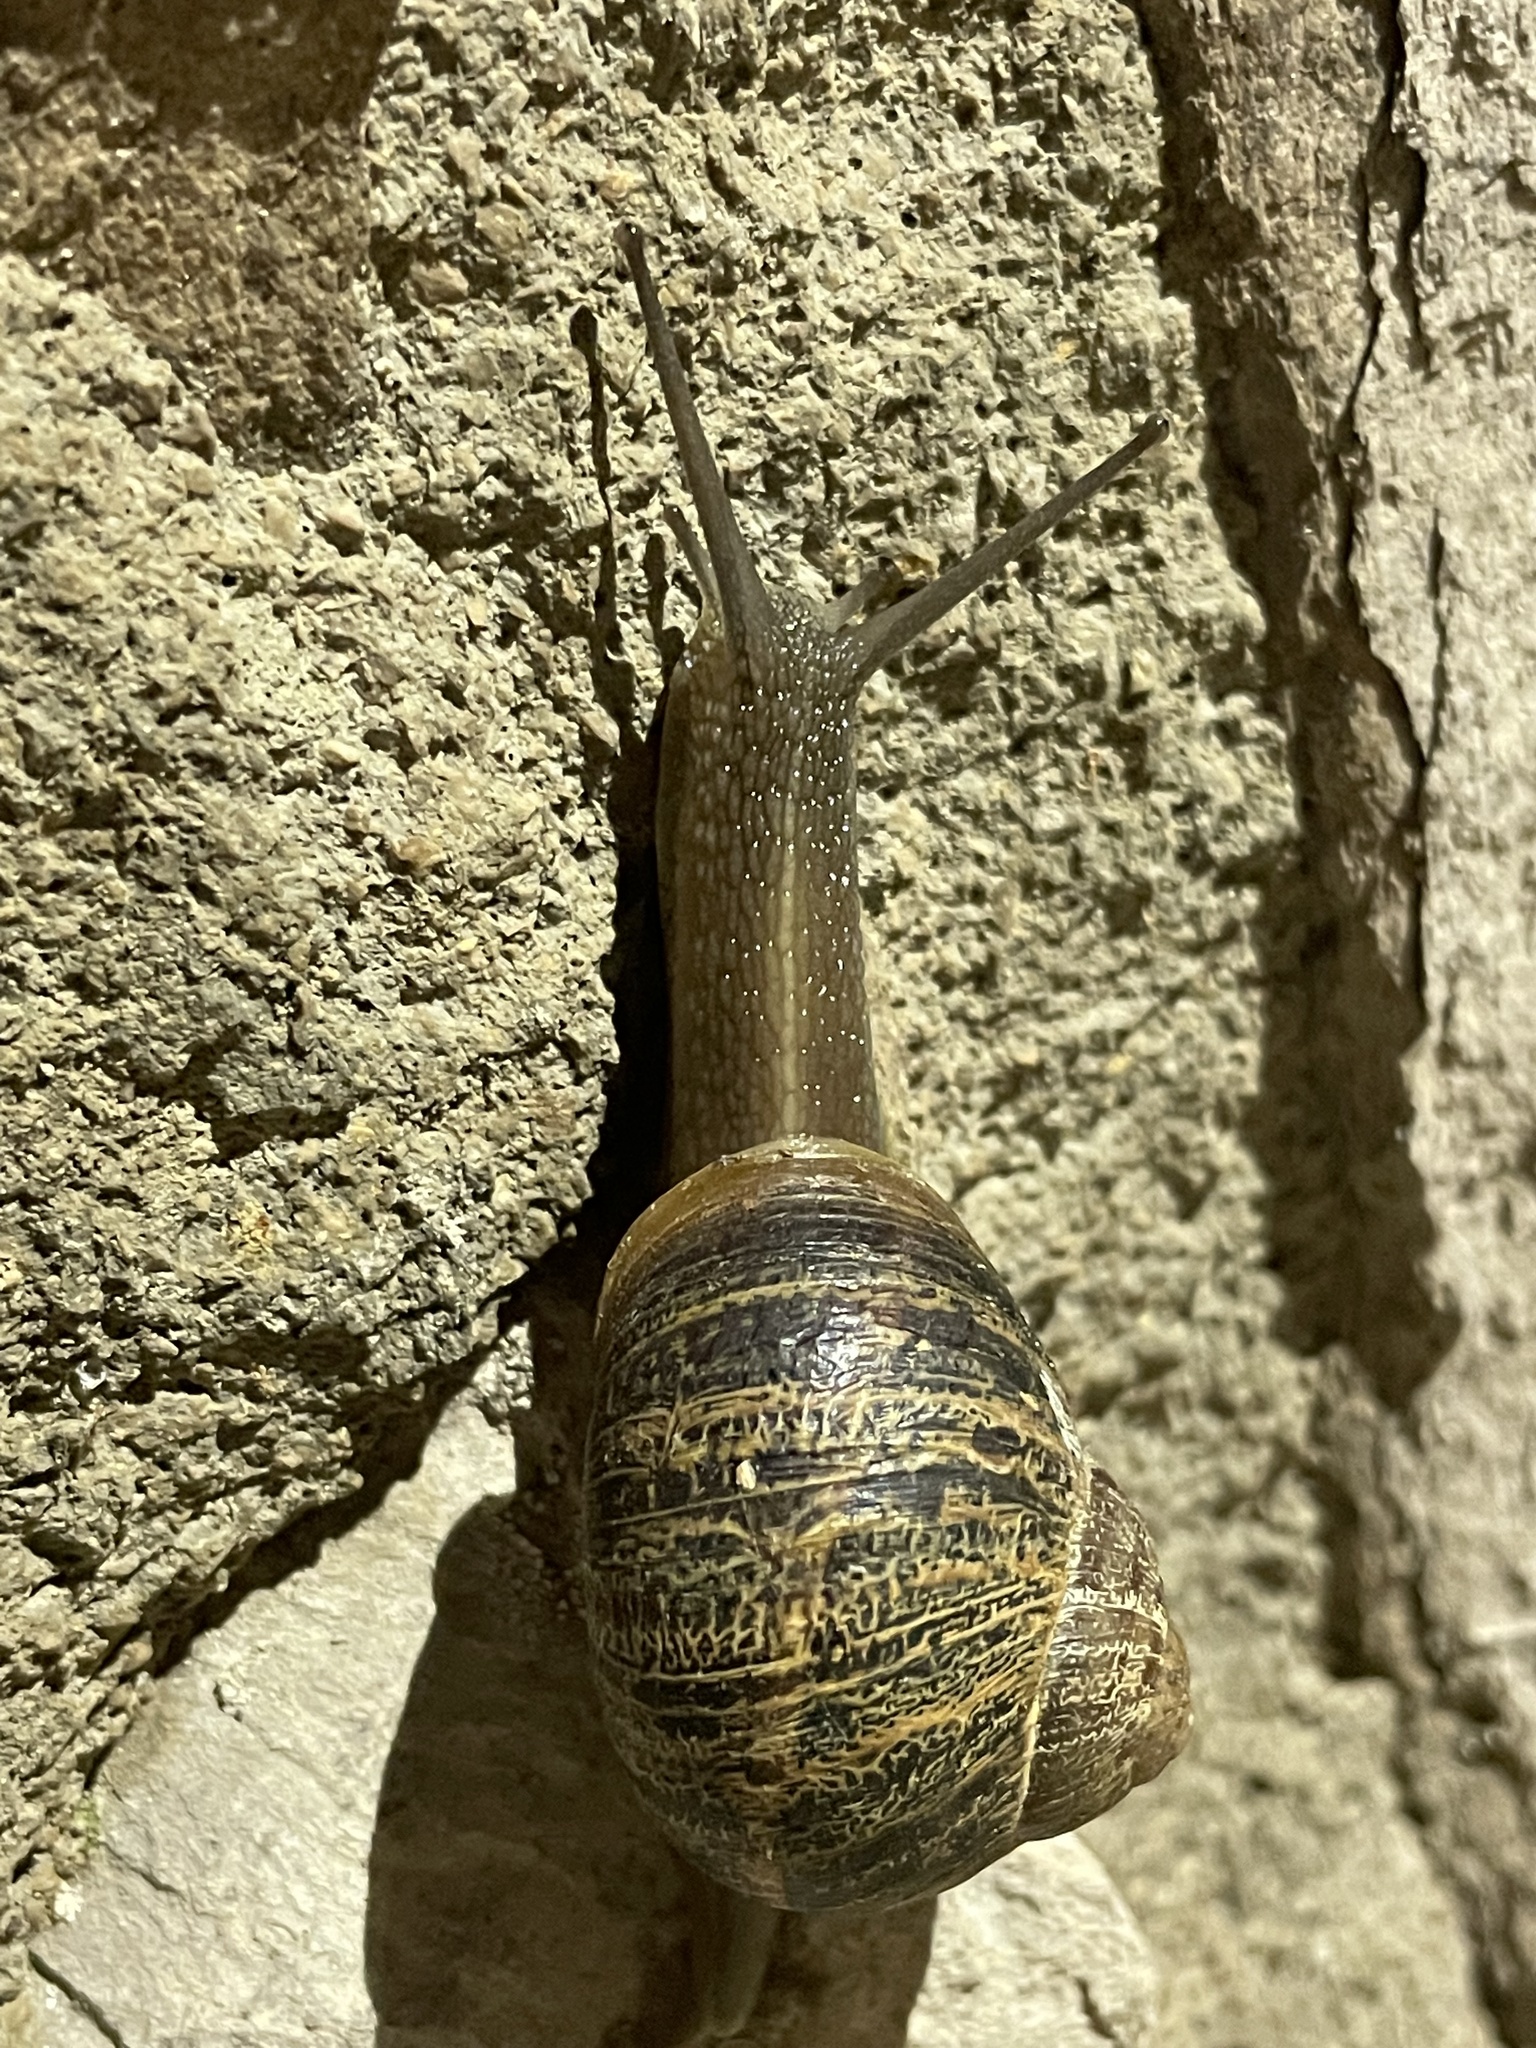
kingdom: Animalia
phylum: Mollusca
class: Gastropoda
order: Stylommatophora
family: Helicidae
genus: Cornu
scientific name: Cornu aspersum
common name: Brown garden snail
